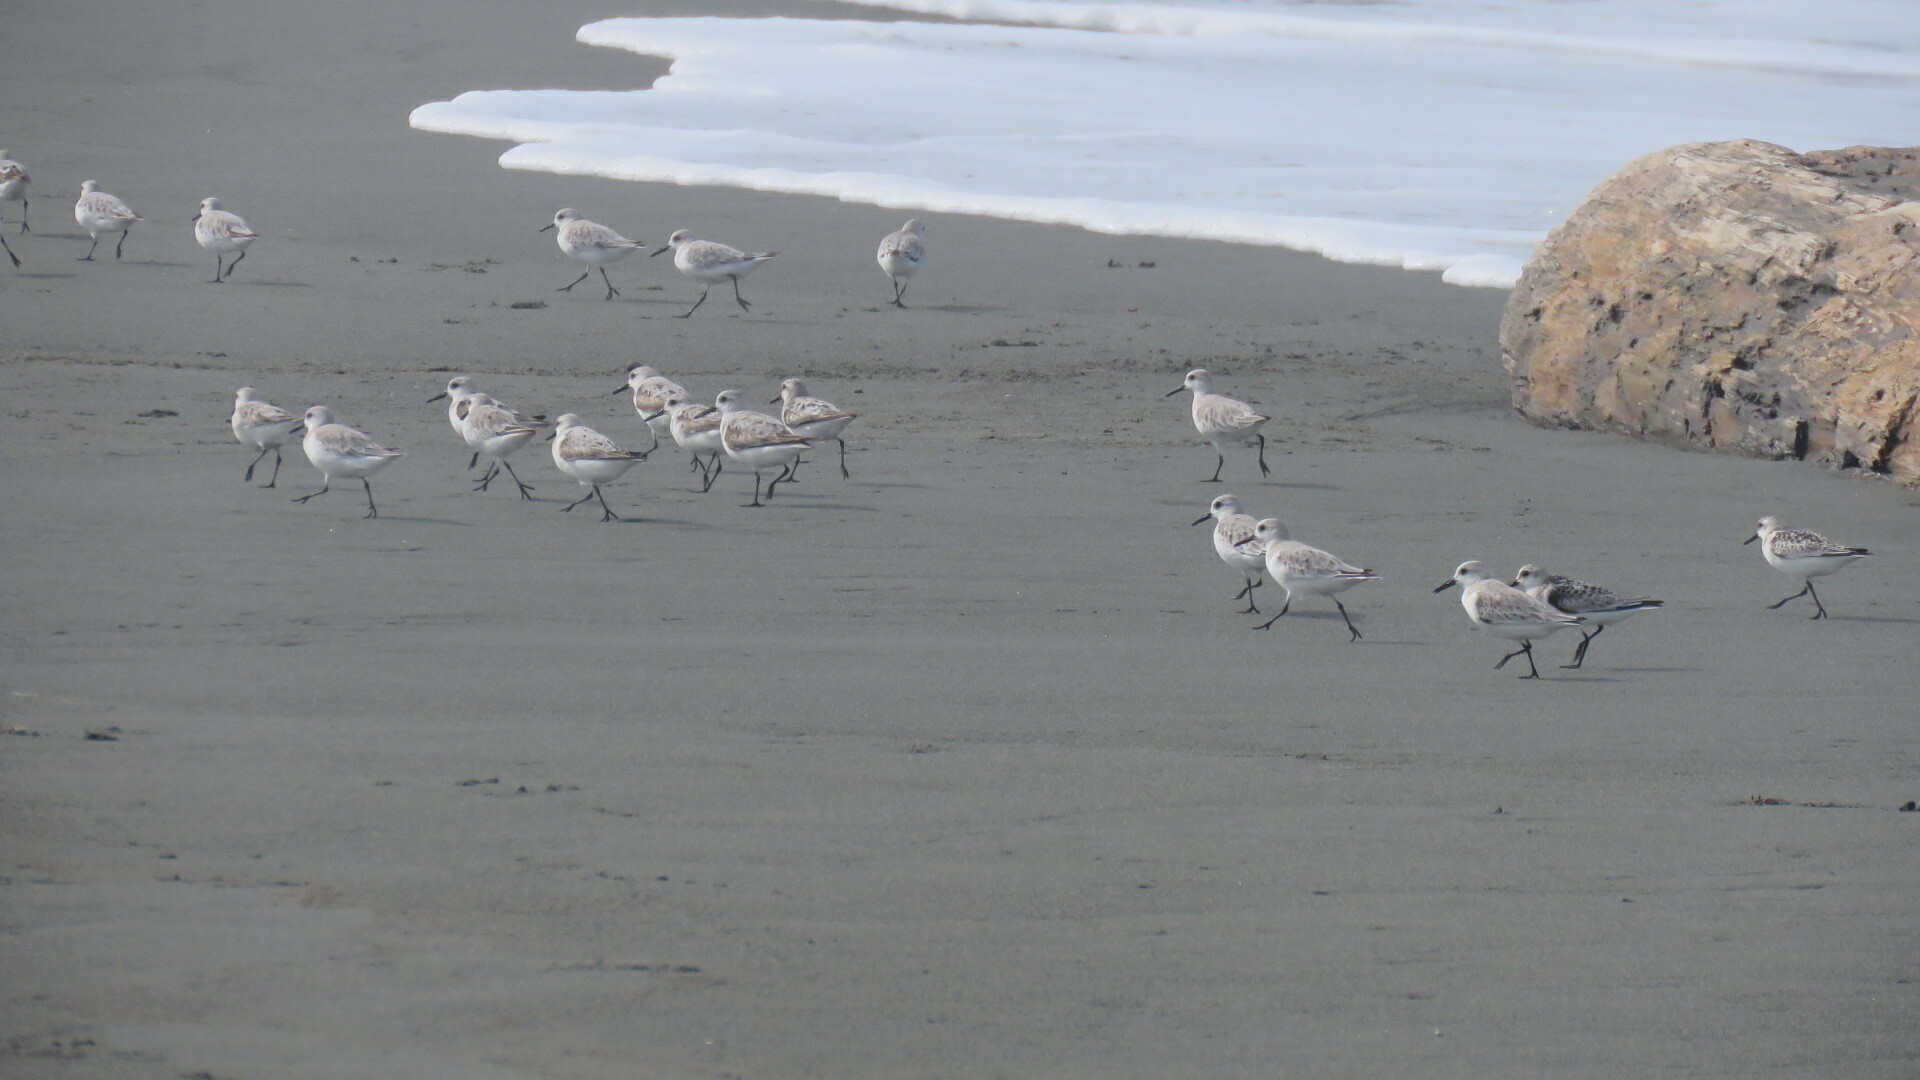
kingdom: Animalia
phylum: Chordata
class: Aves
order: Charadriiformes
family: Scolopacidae
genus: Calidris
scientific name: Calidris alba
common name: Sanderling
